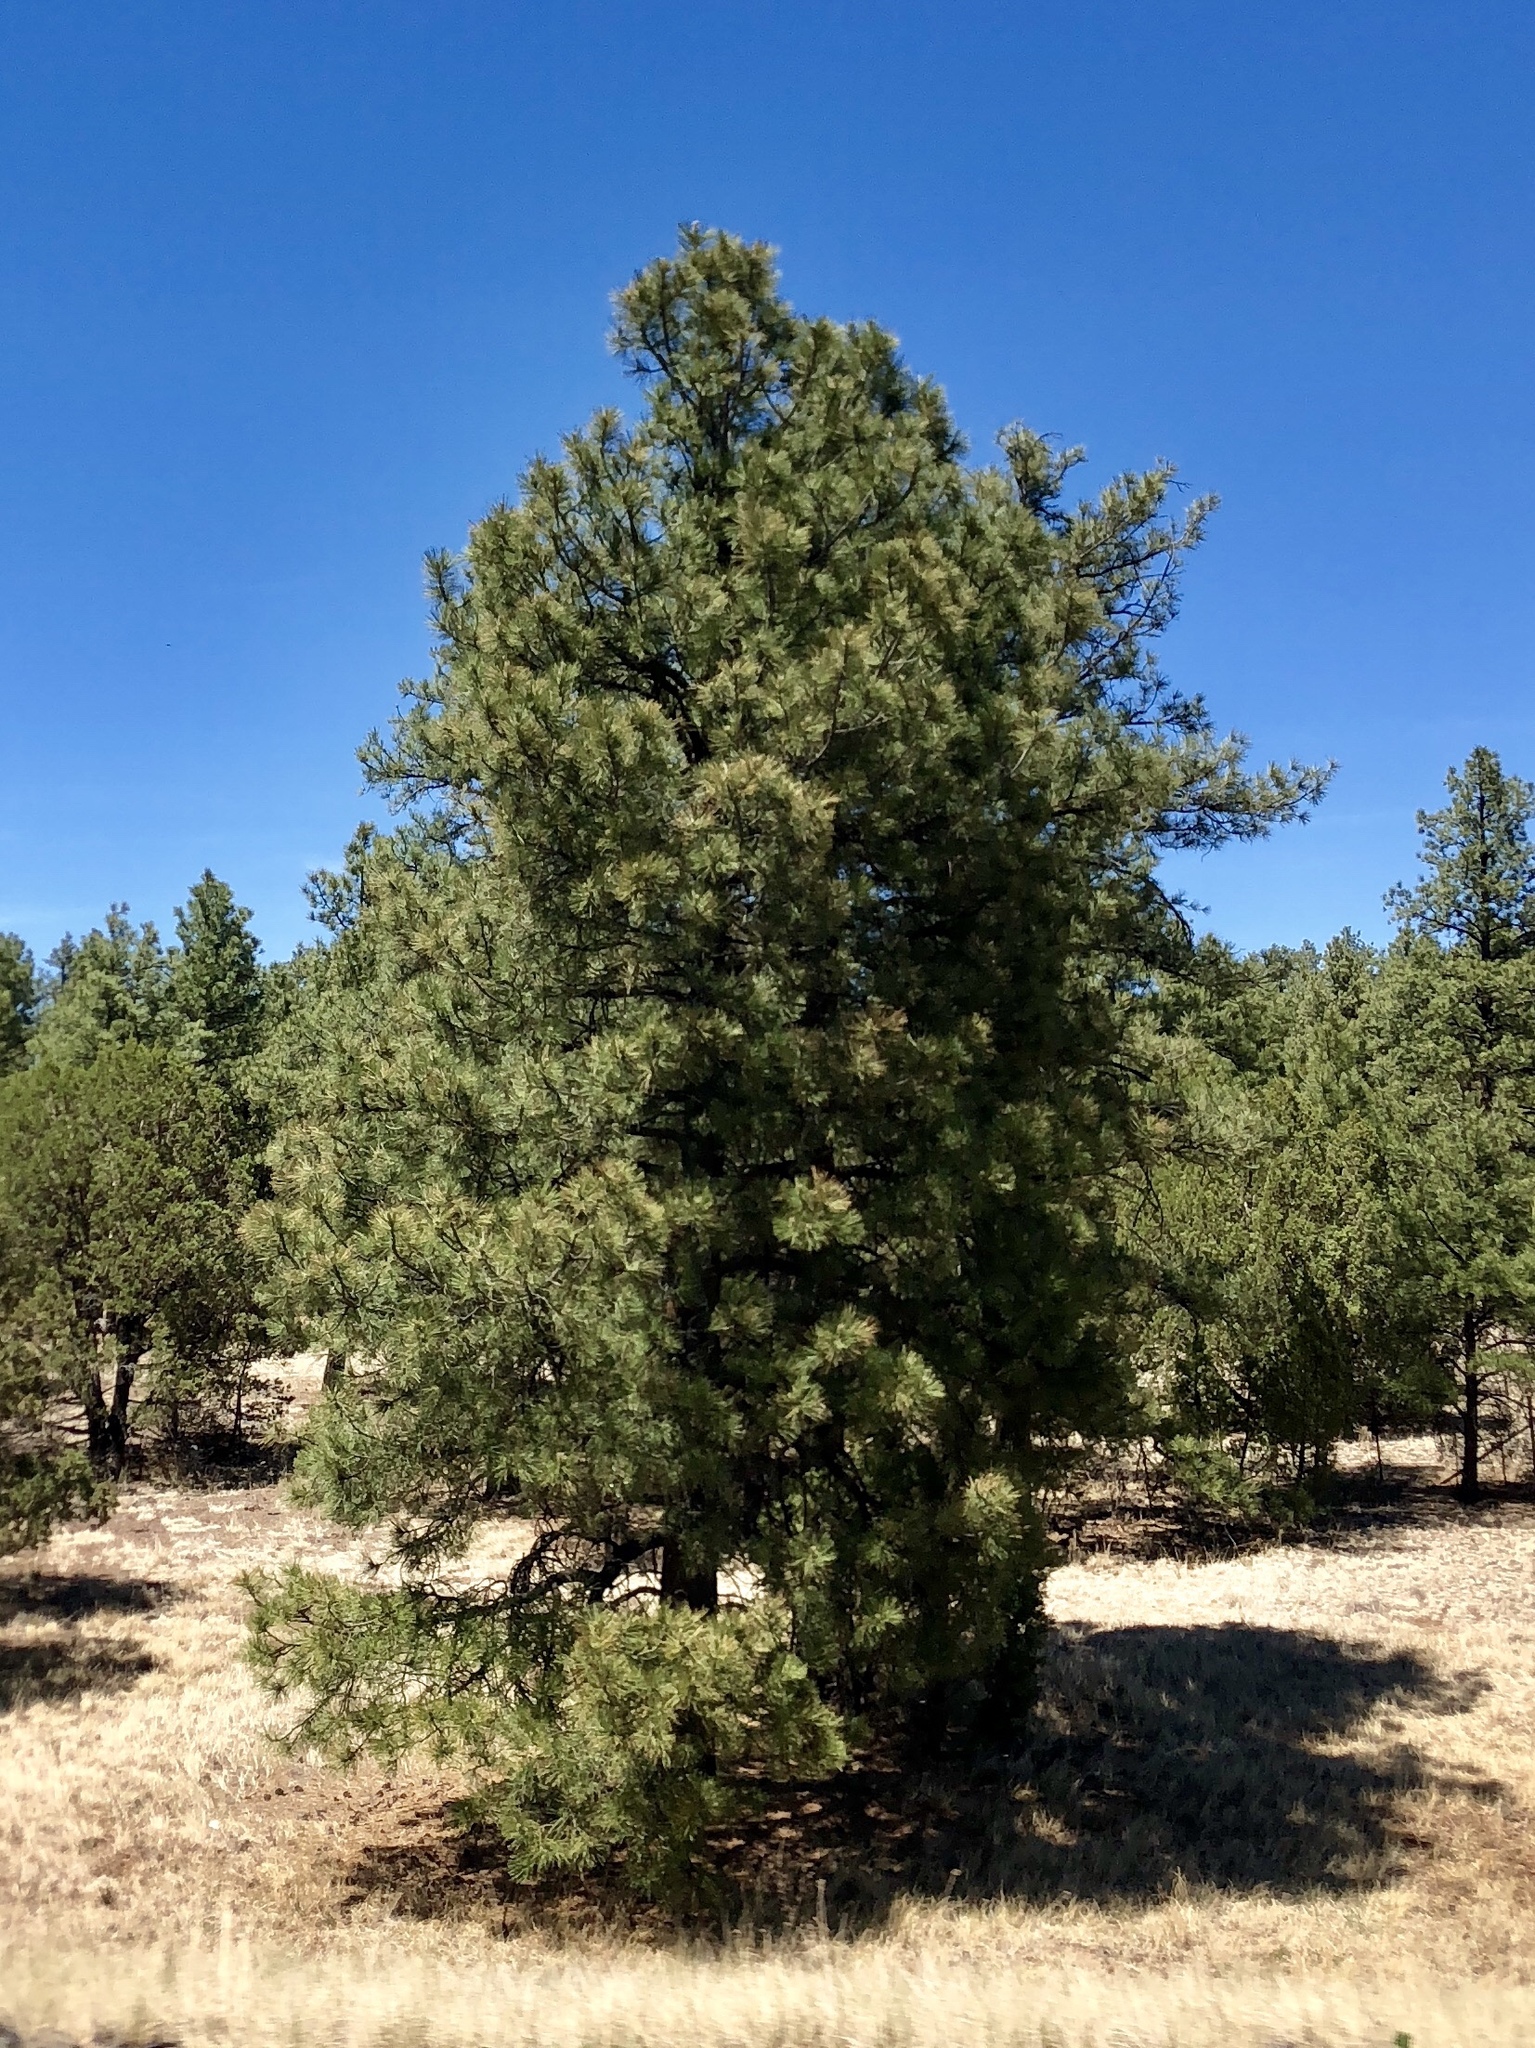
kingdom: Plantae
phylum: Tracheophyta
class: Pinopsida
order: Pinales
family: Pinaceae
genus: Pinus
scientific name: Pinus ponderosa
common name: Western yellow-pine
